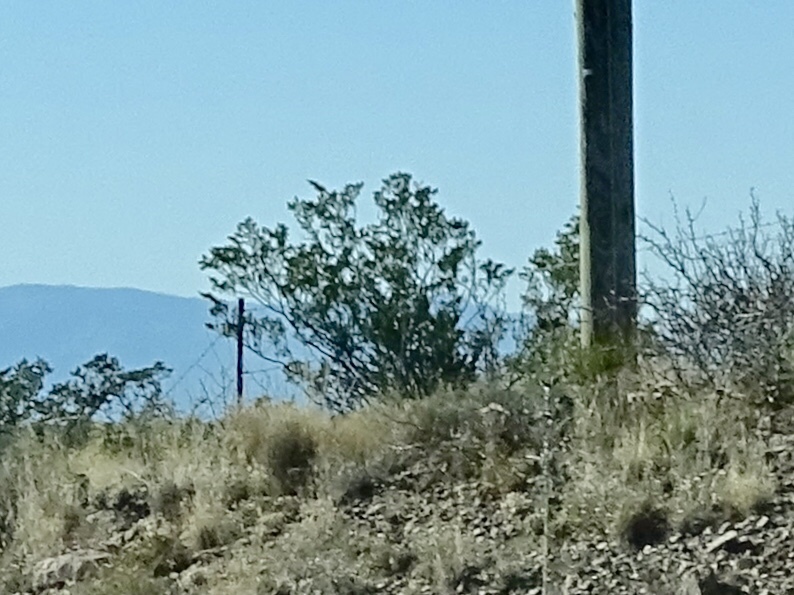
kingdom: Plantae
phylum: Tracheophyta
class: Magnoliopsida
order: Zygophyllales
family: Zygophyllaceae
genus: Larrea
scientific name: Larrea tridentata
